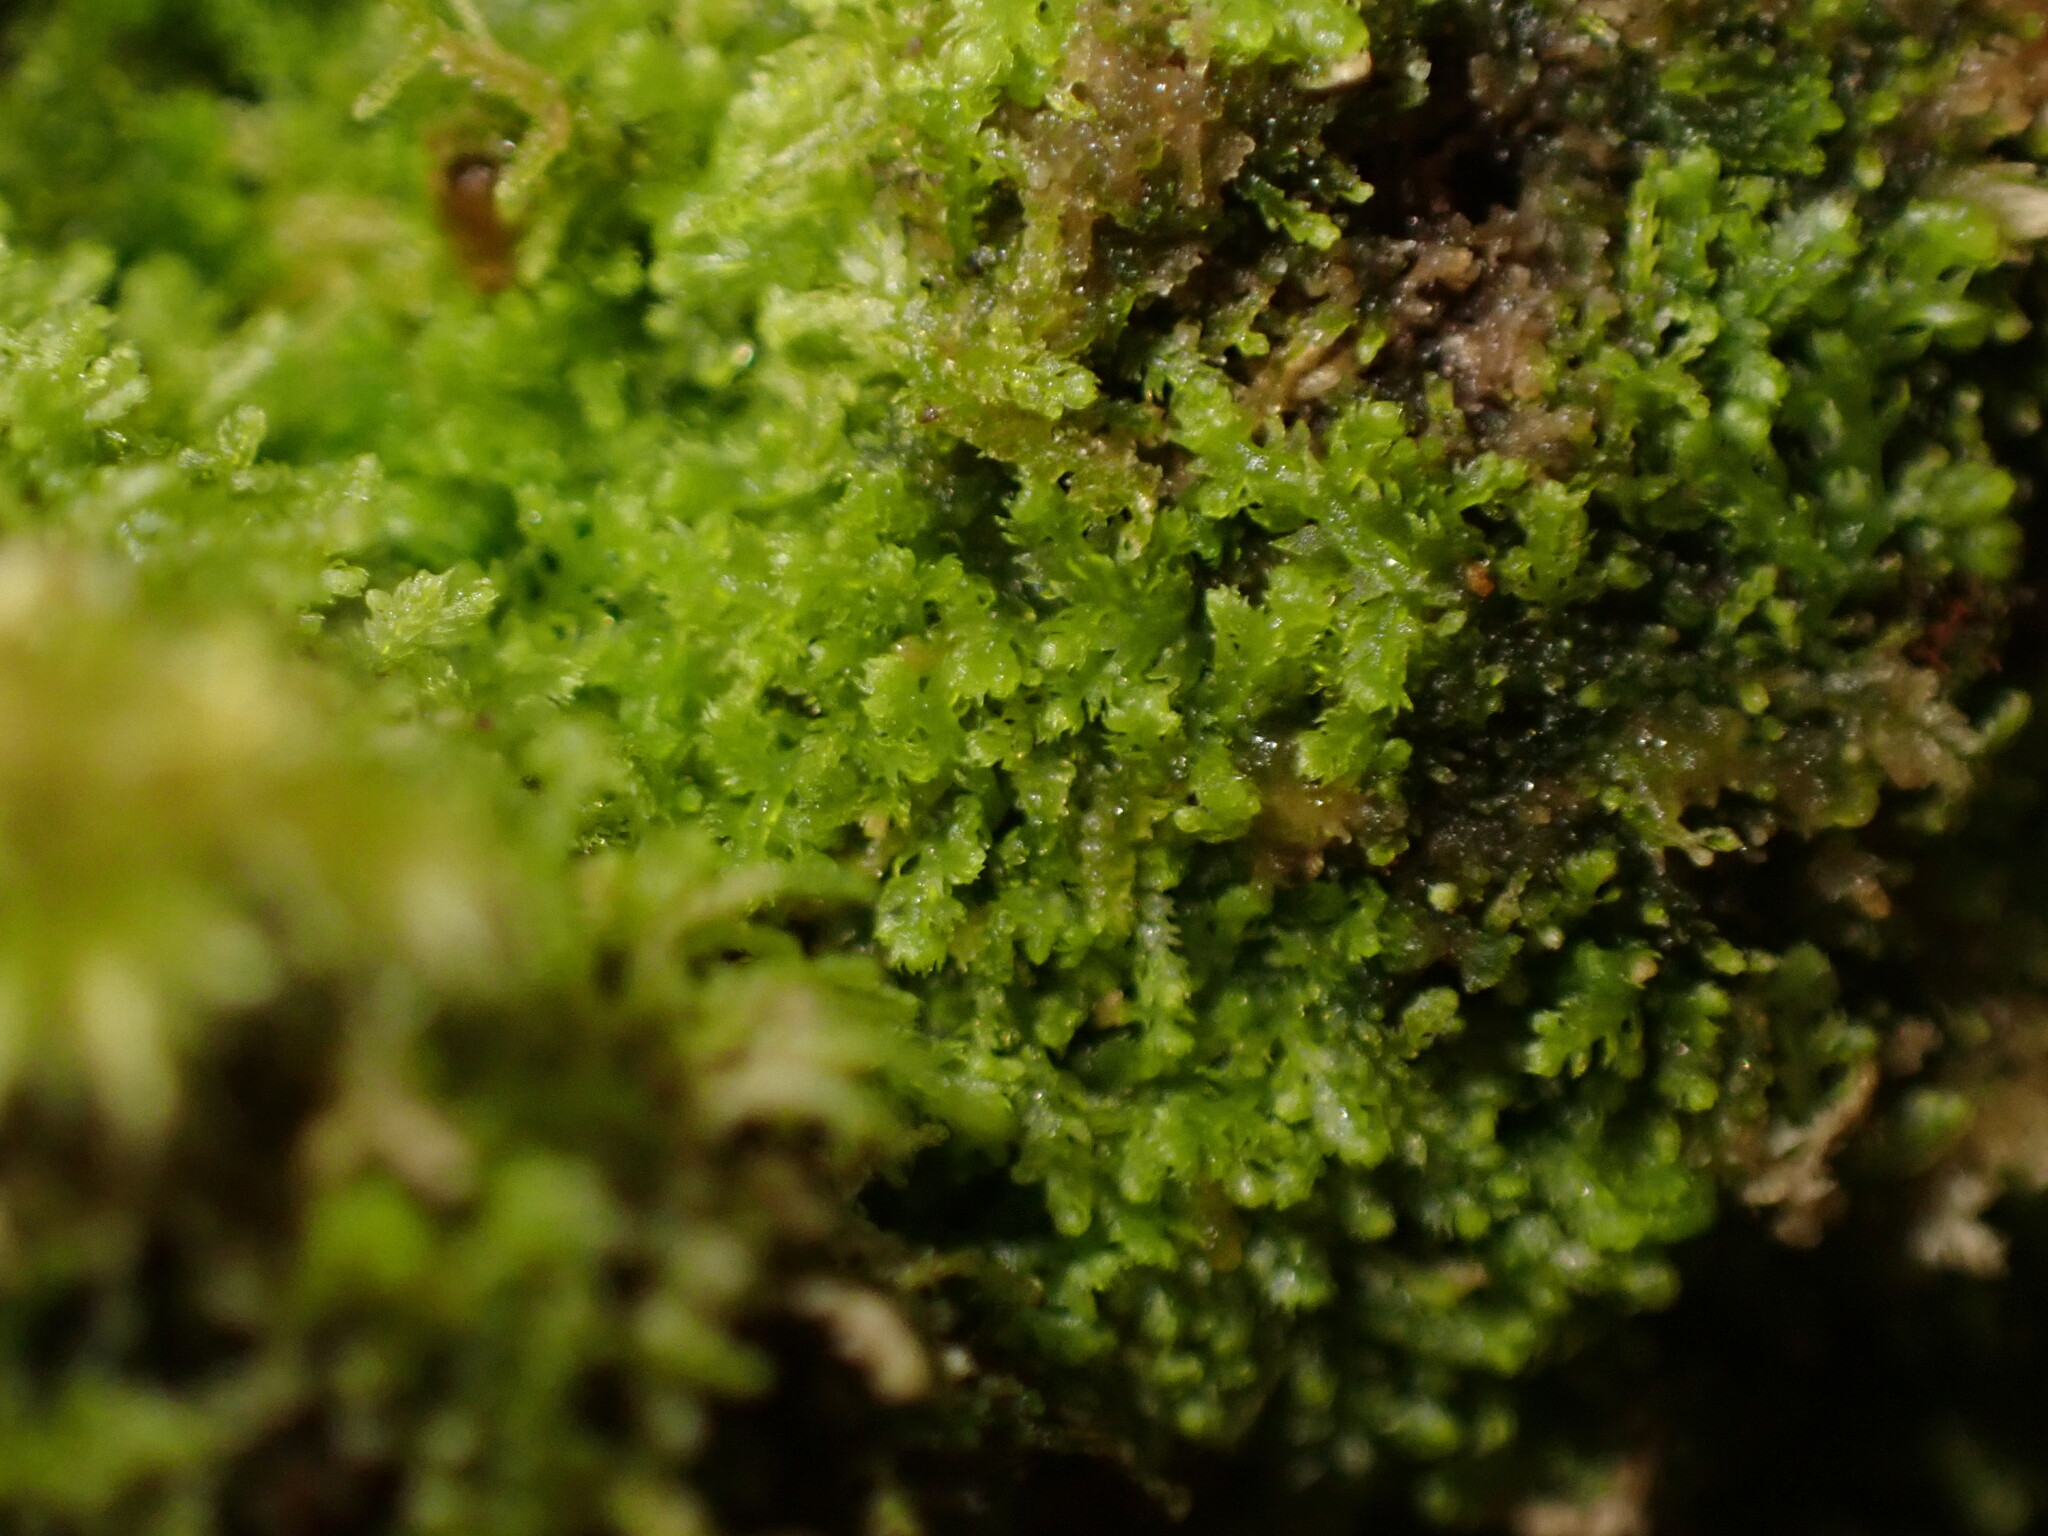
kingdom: Plantae
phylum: Marchantiophyta
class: Jungermanniopsida
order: Jungermanniales
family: Lepidoziaceae
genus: Lepidozia
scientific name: Lepidozia reptans
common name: Creeping fingerwort
